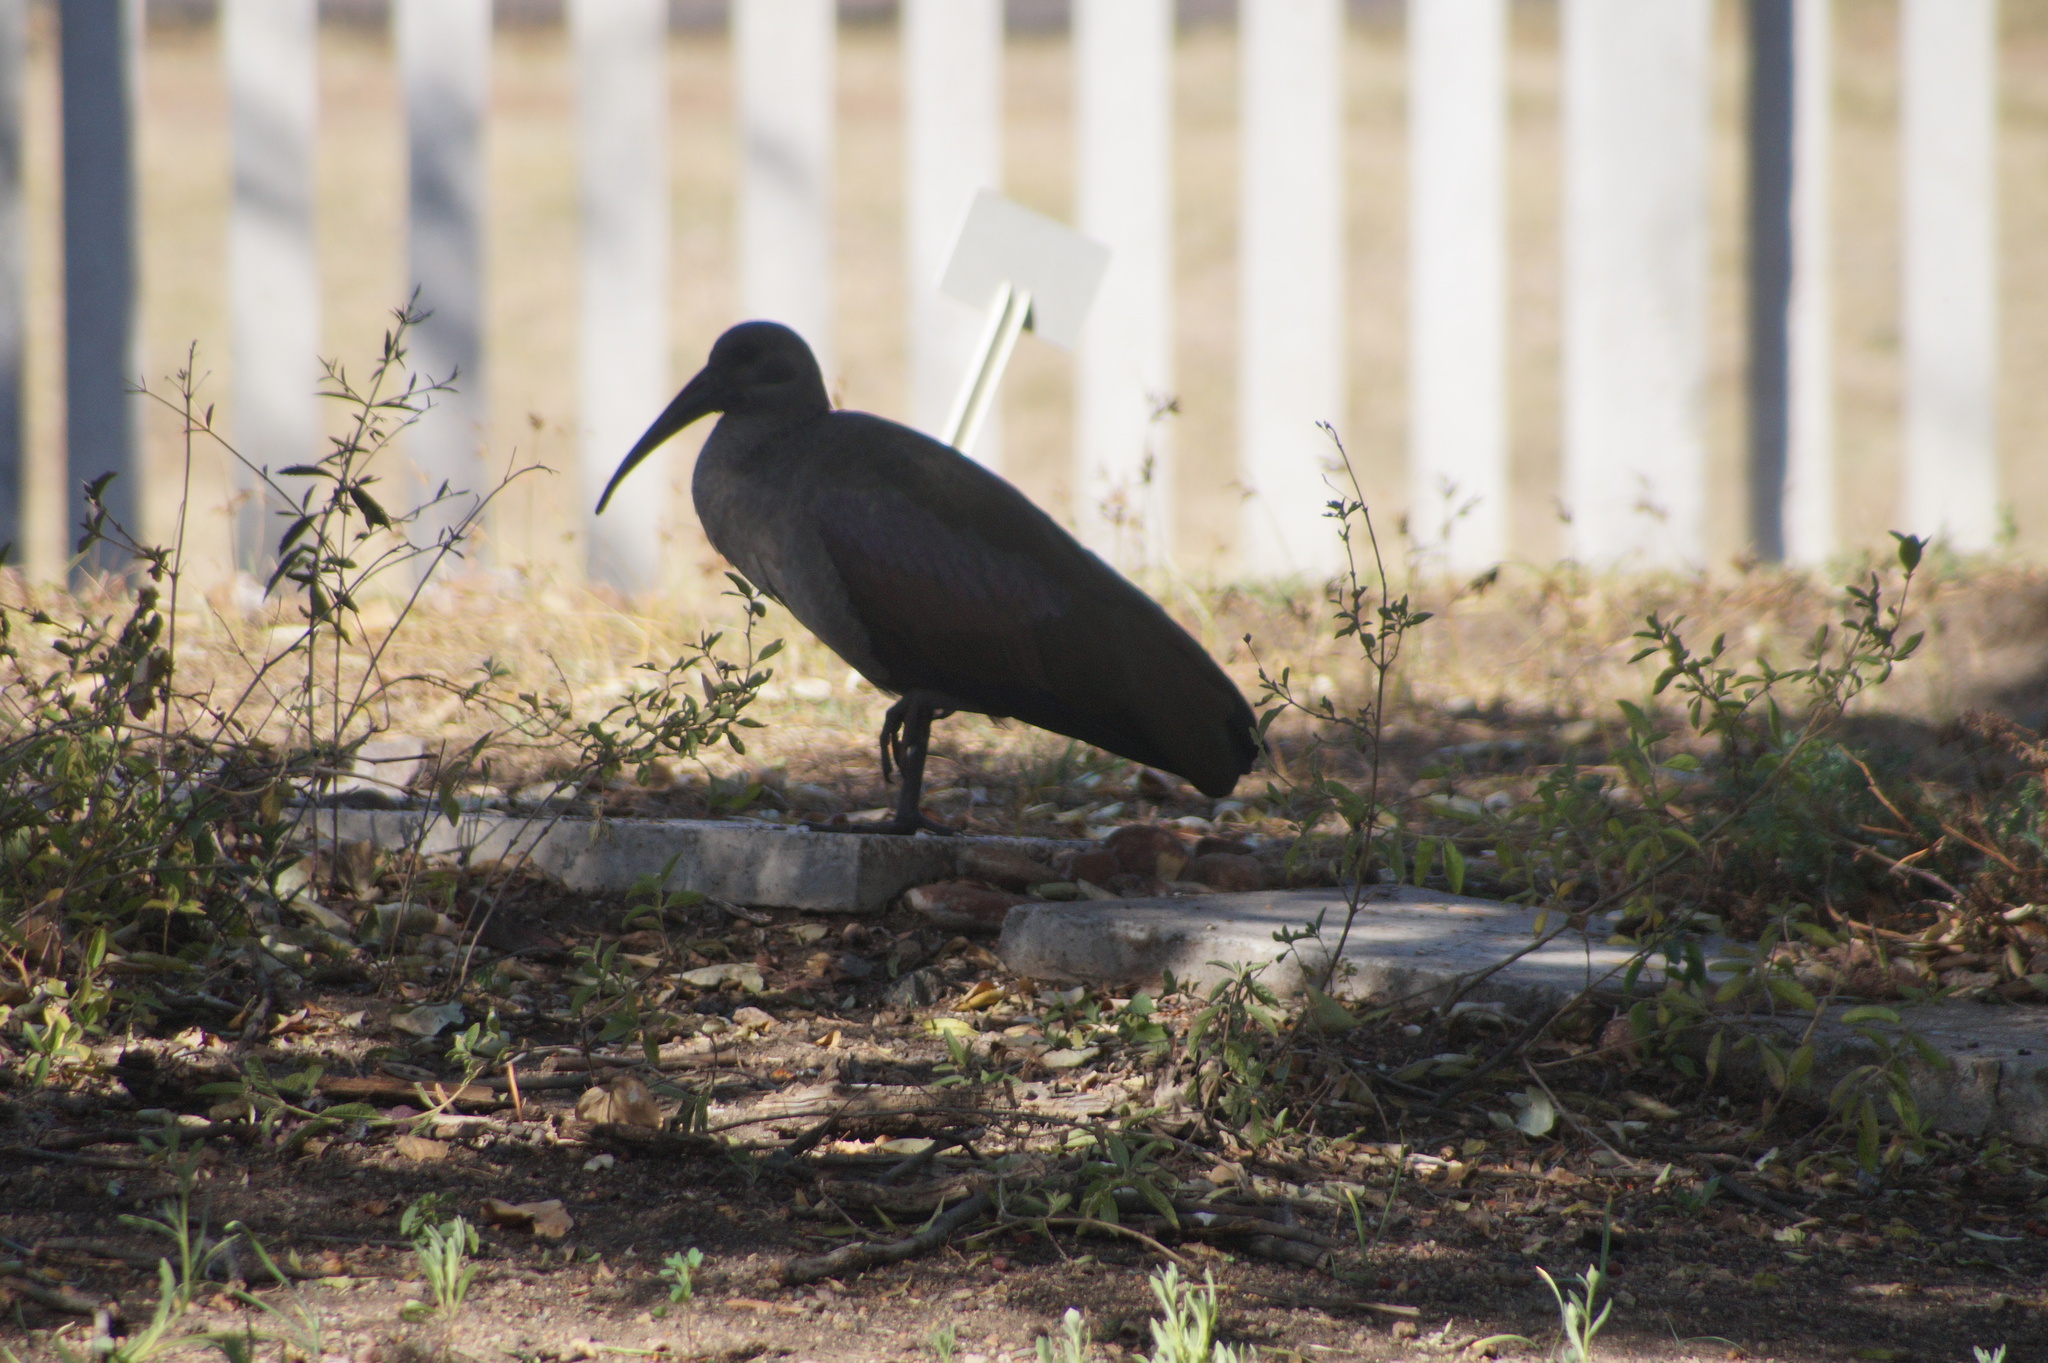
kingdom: Animalia
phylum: Chordata
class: Aves
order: Pelecaniformes
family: Threskiornithidae
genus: Bostrychia
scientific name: Bostrychia hagedash
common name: Hadada ibis
